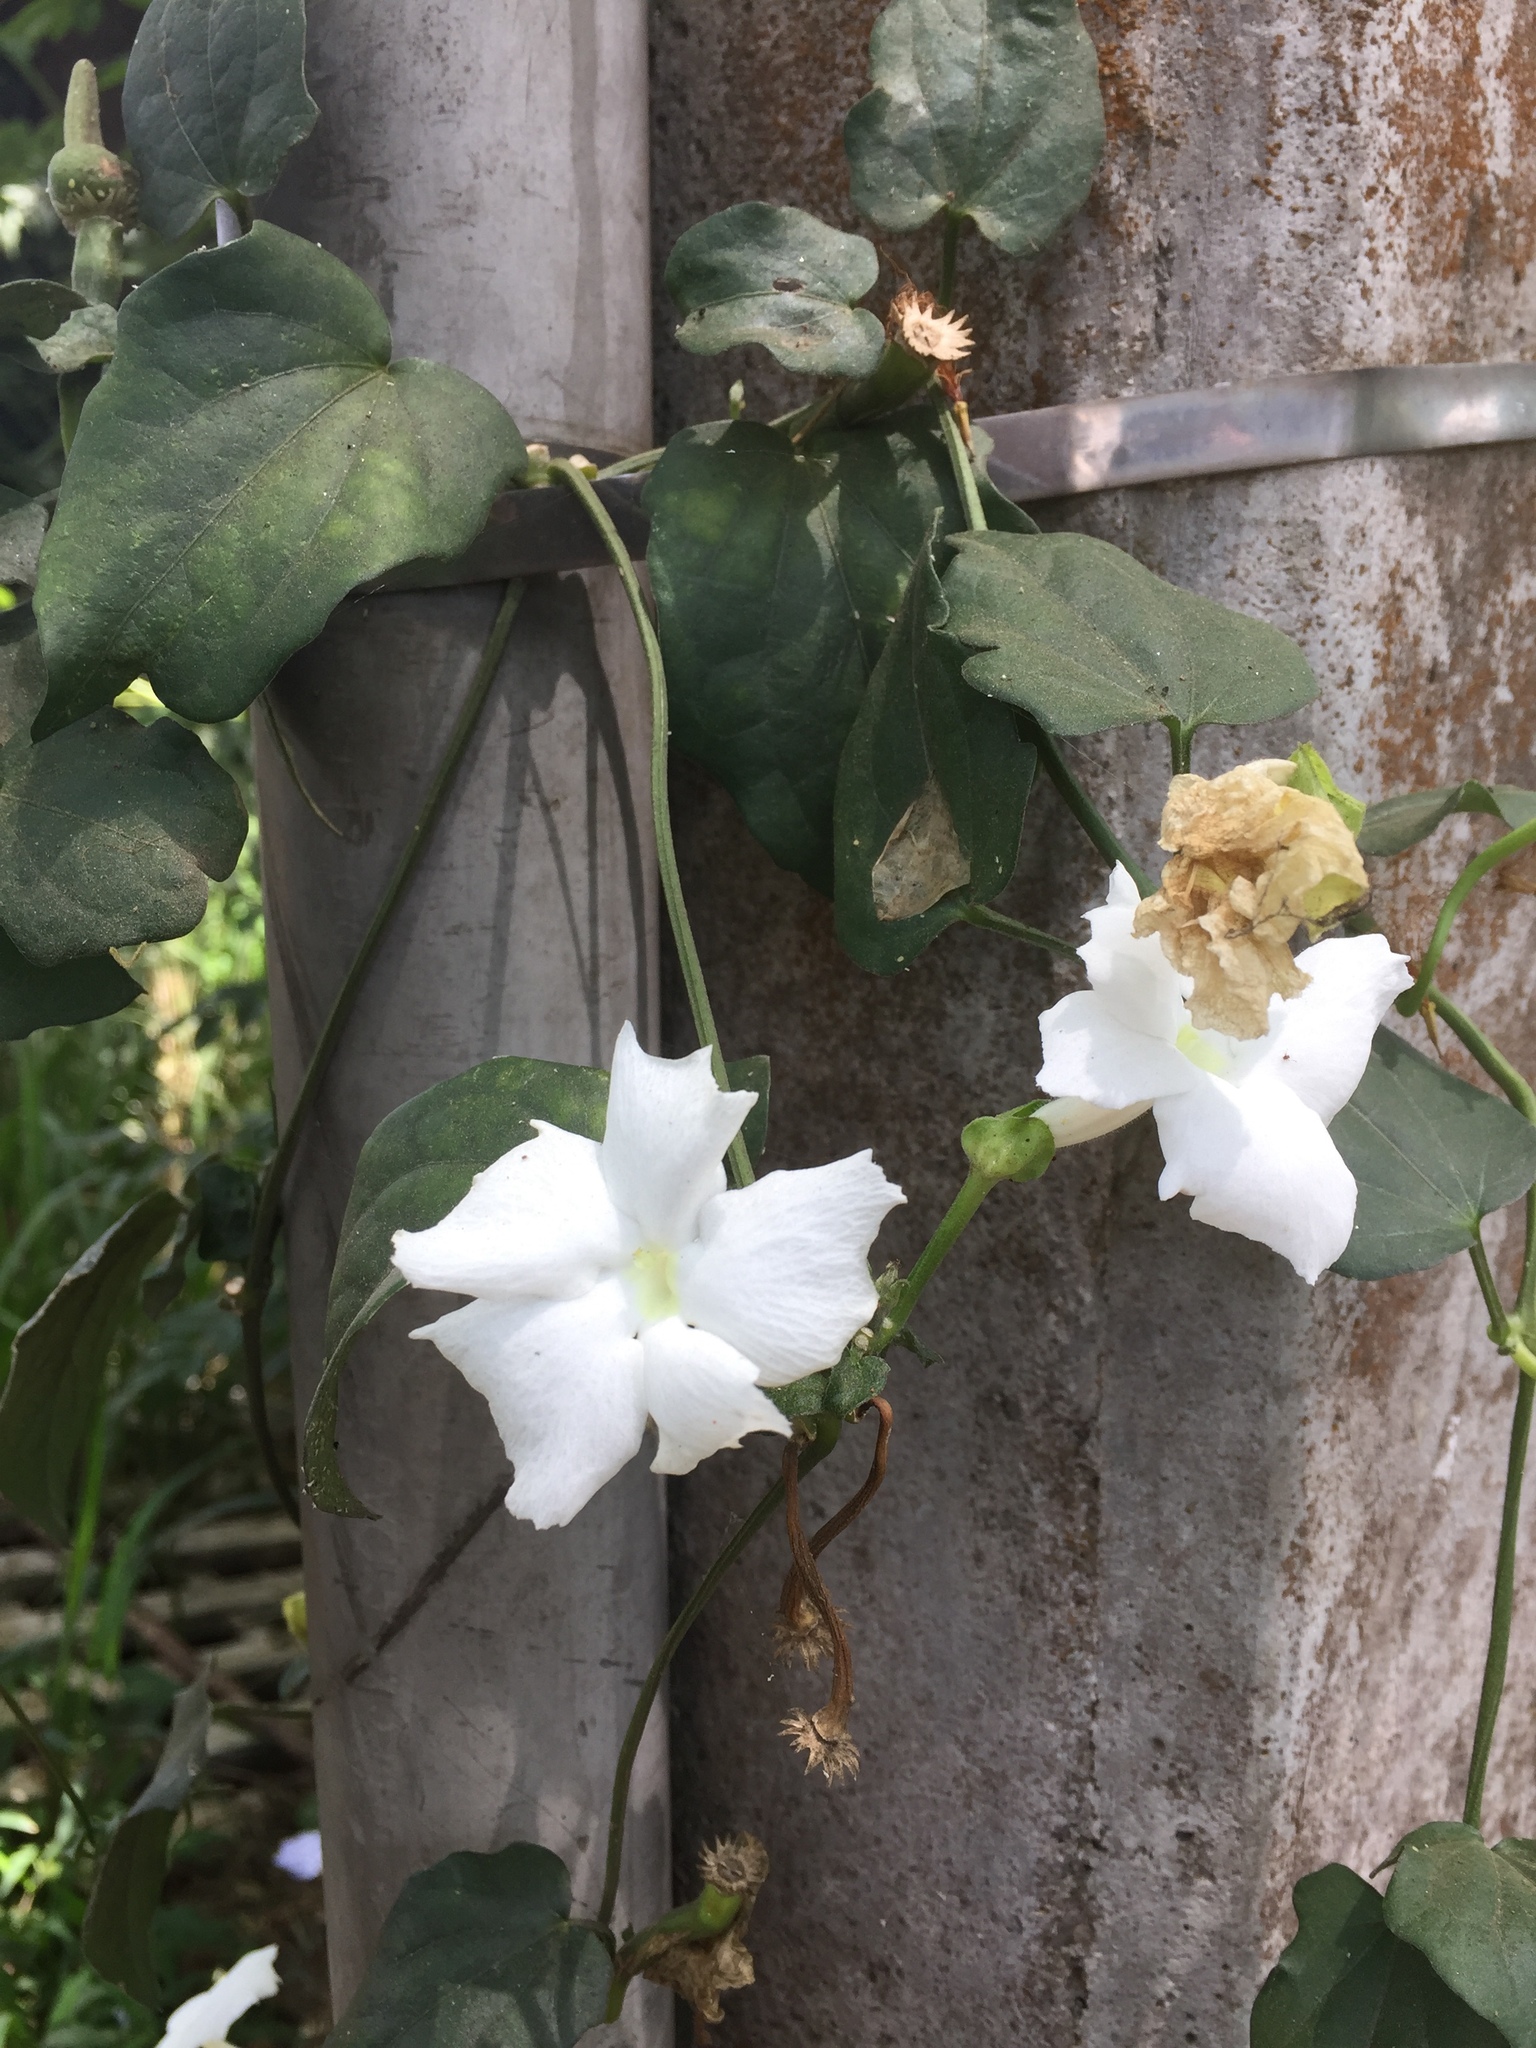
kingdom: Plantae
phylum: Tracheophyta
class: Magnoliopsida
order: Lamiales
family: Acanthaceae
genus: Thunbergia
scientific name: Thunbergia fragrans
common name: Whitelady
